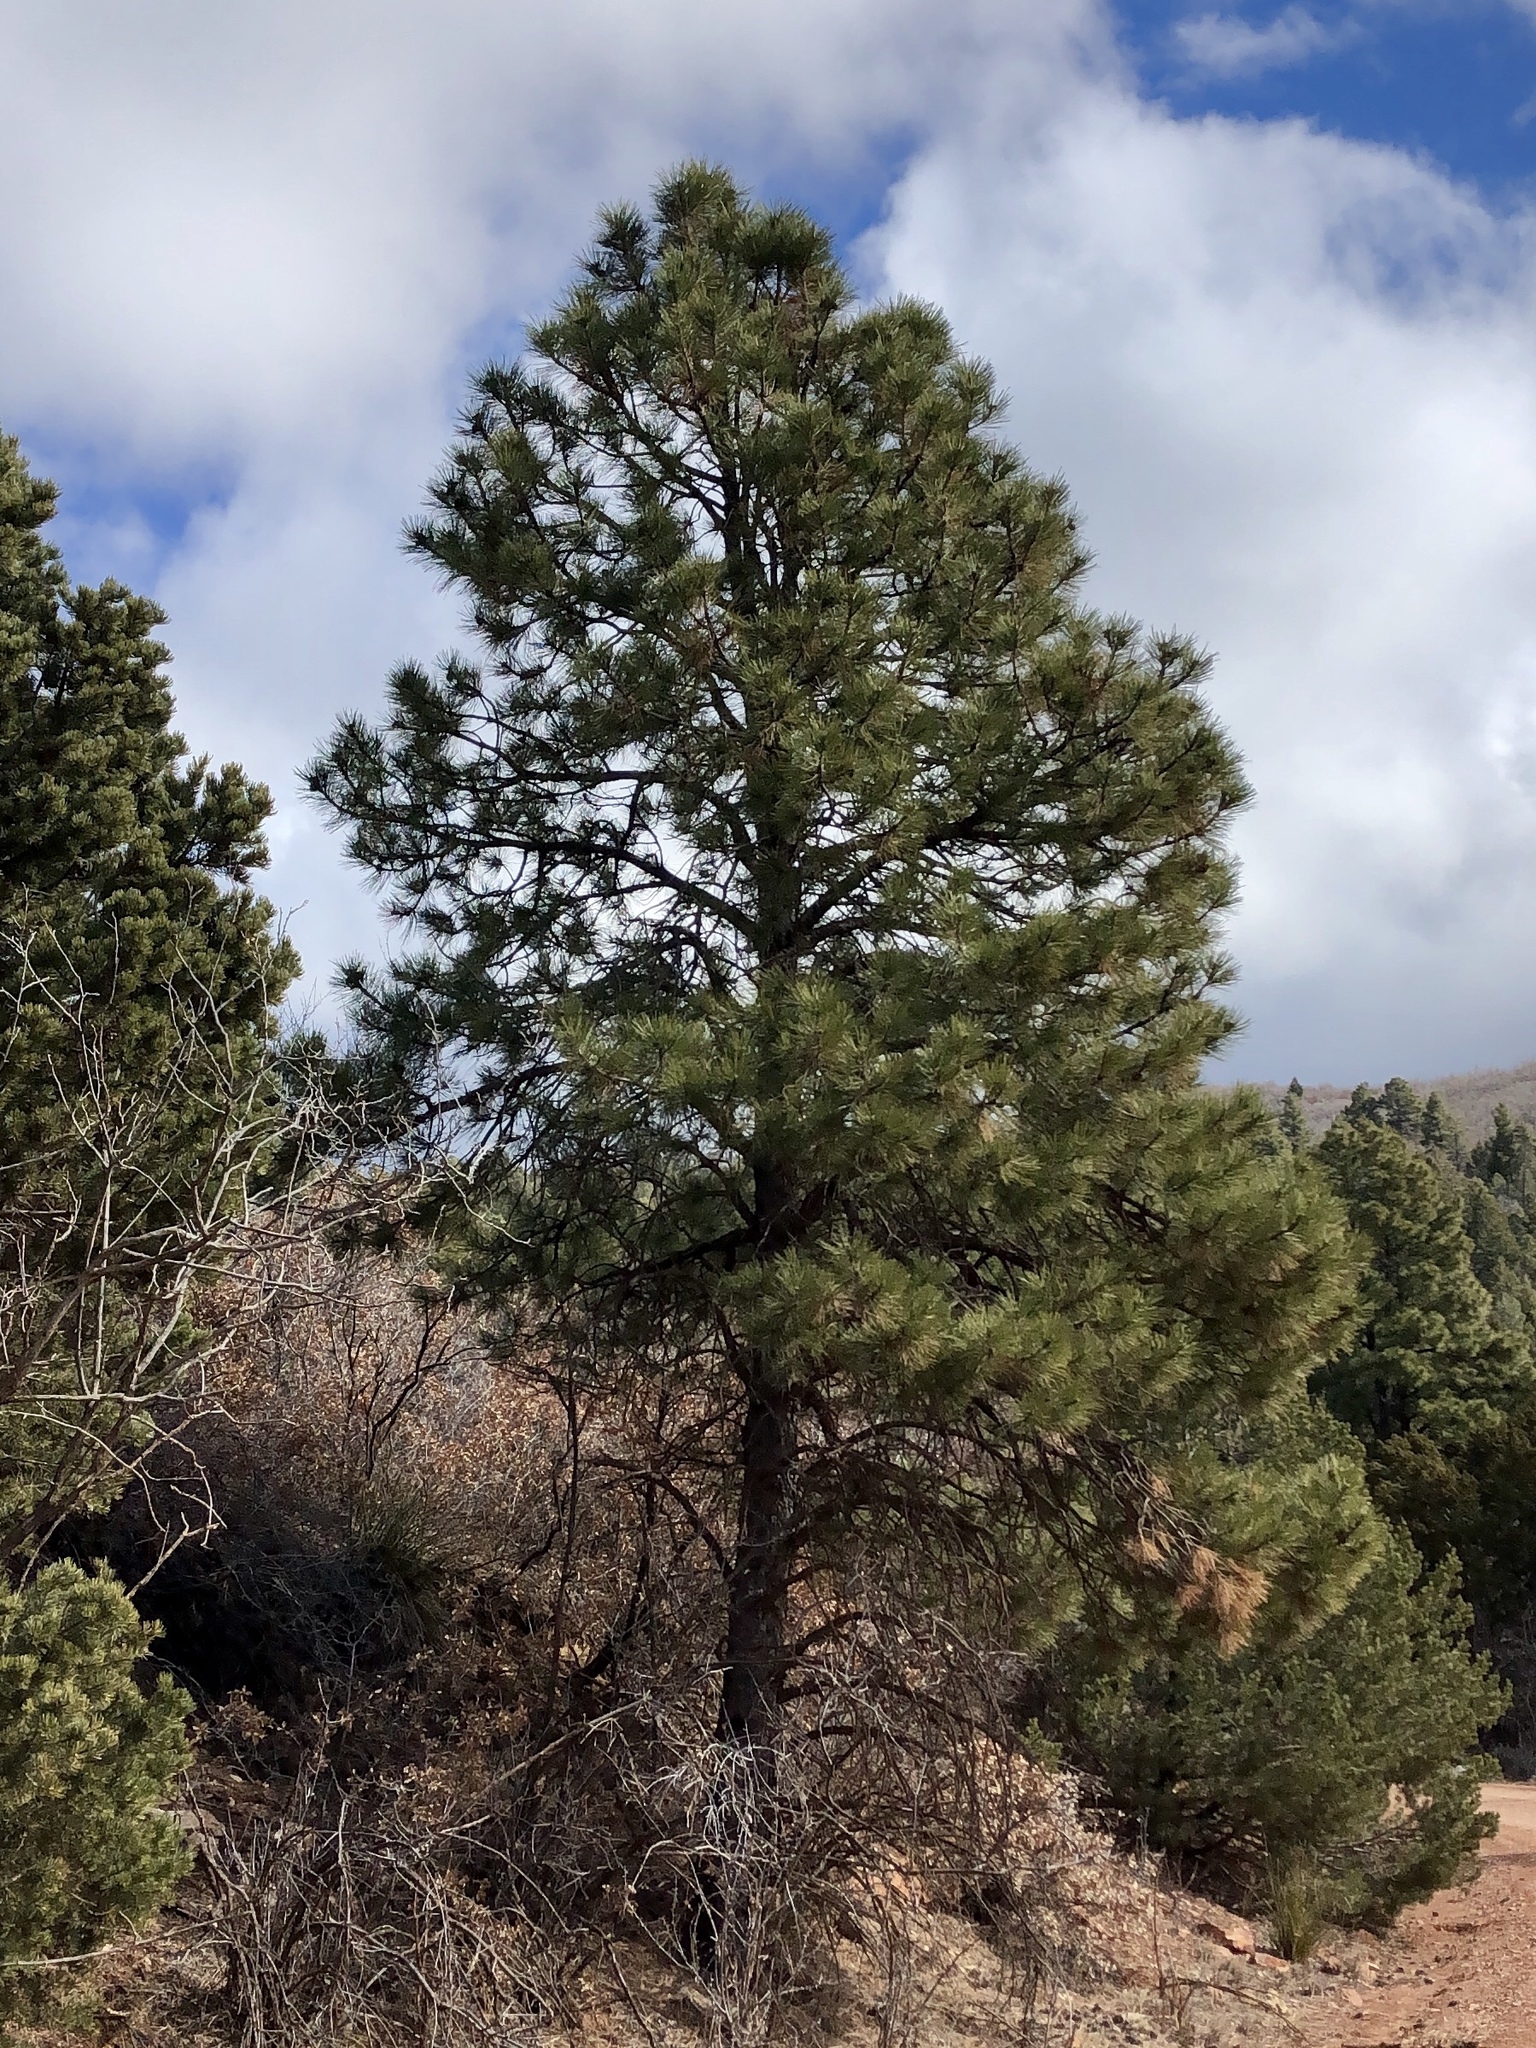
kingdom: Plantae
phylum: Tracheophyta
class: Pinopsida
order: Pinales
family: Pinaceae
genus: Pinus
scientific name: Pinus ponderosa
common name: Western yellow-pine
